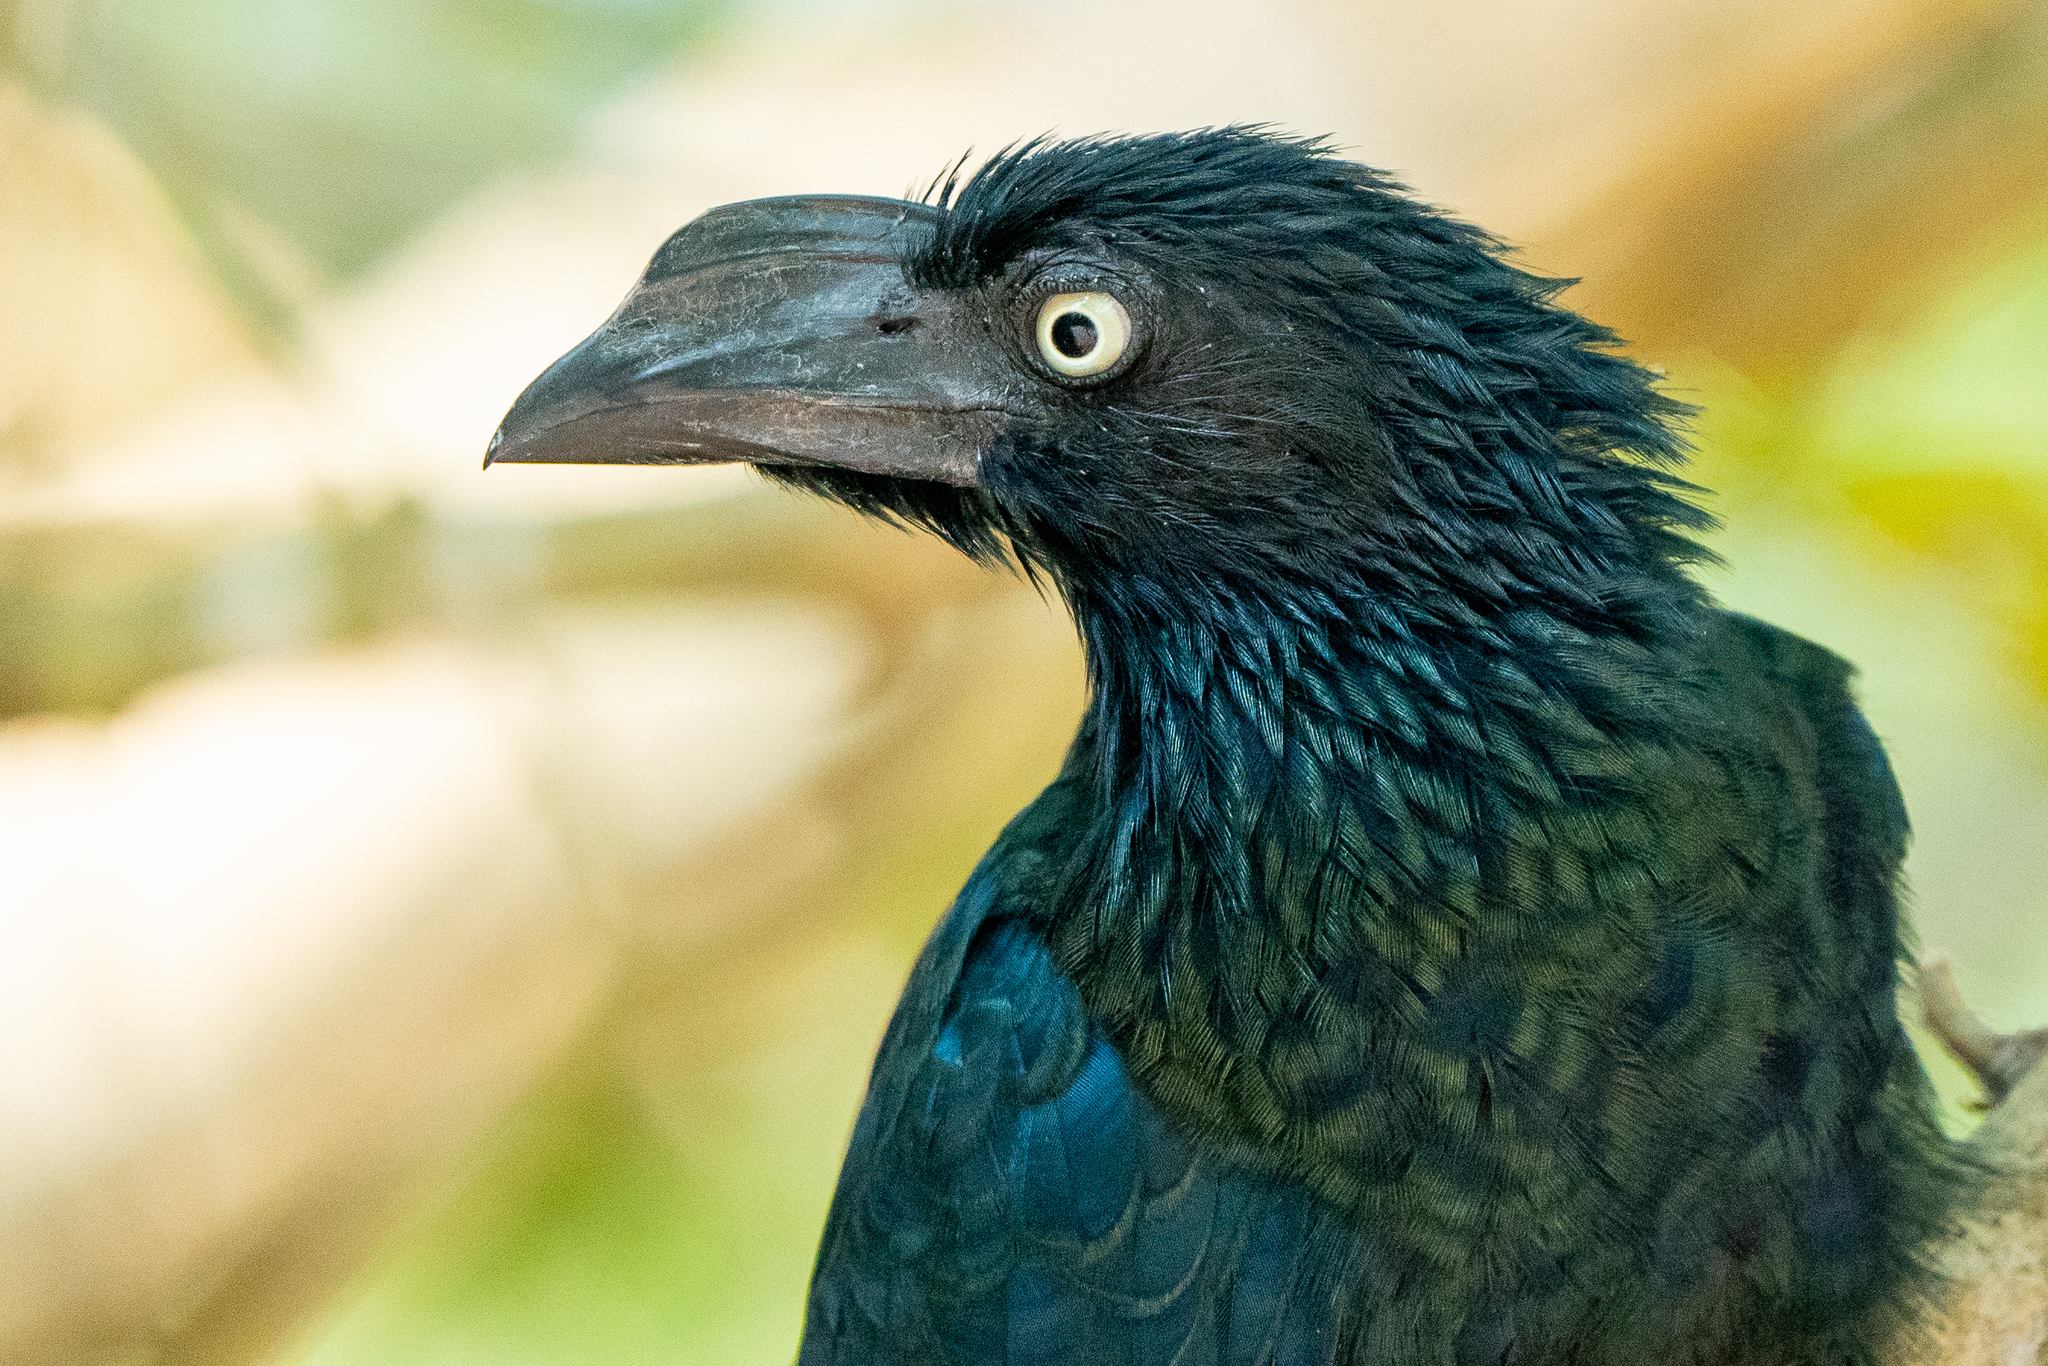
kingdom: Animalia
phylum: Chordata
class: Aves
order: Cuculiformes
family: Cuculidae
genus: Crotophaga
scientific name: Crotophaga major
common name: Greater ani
